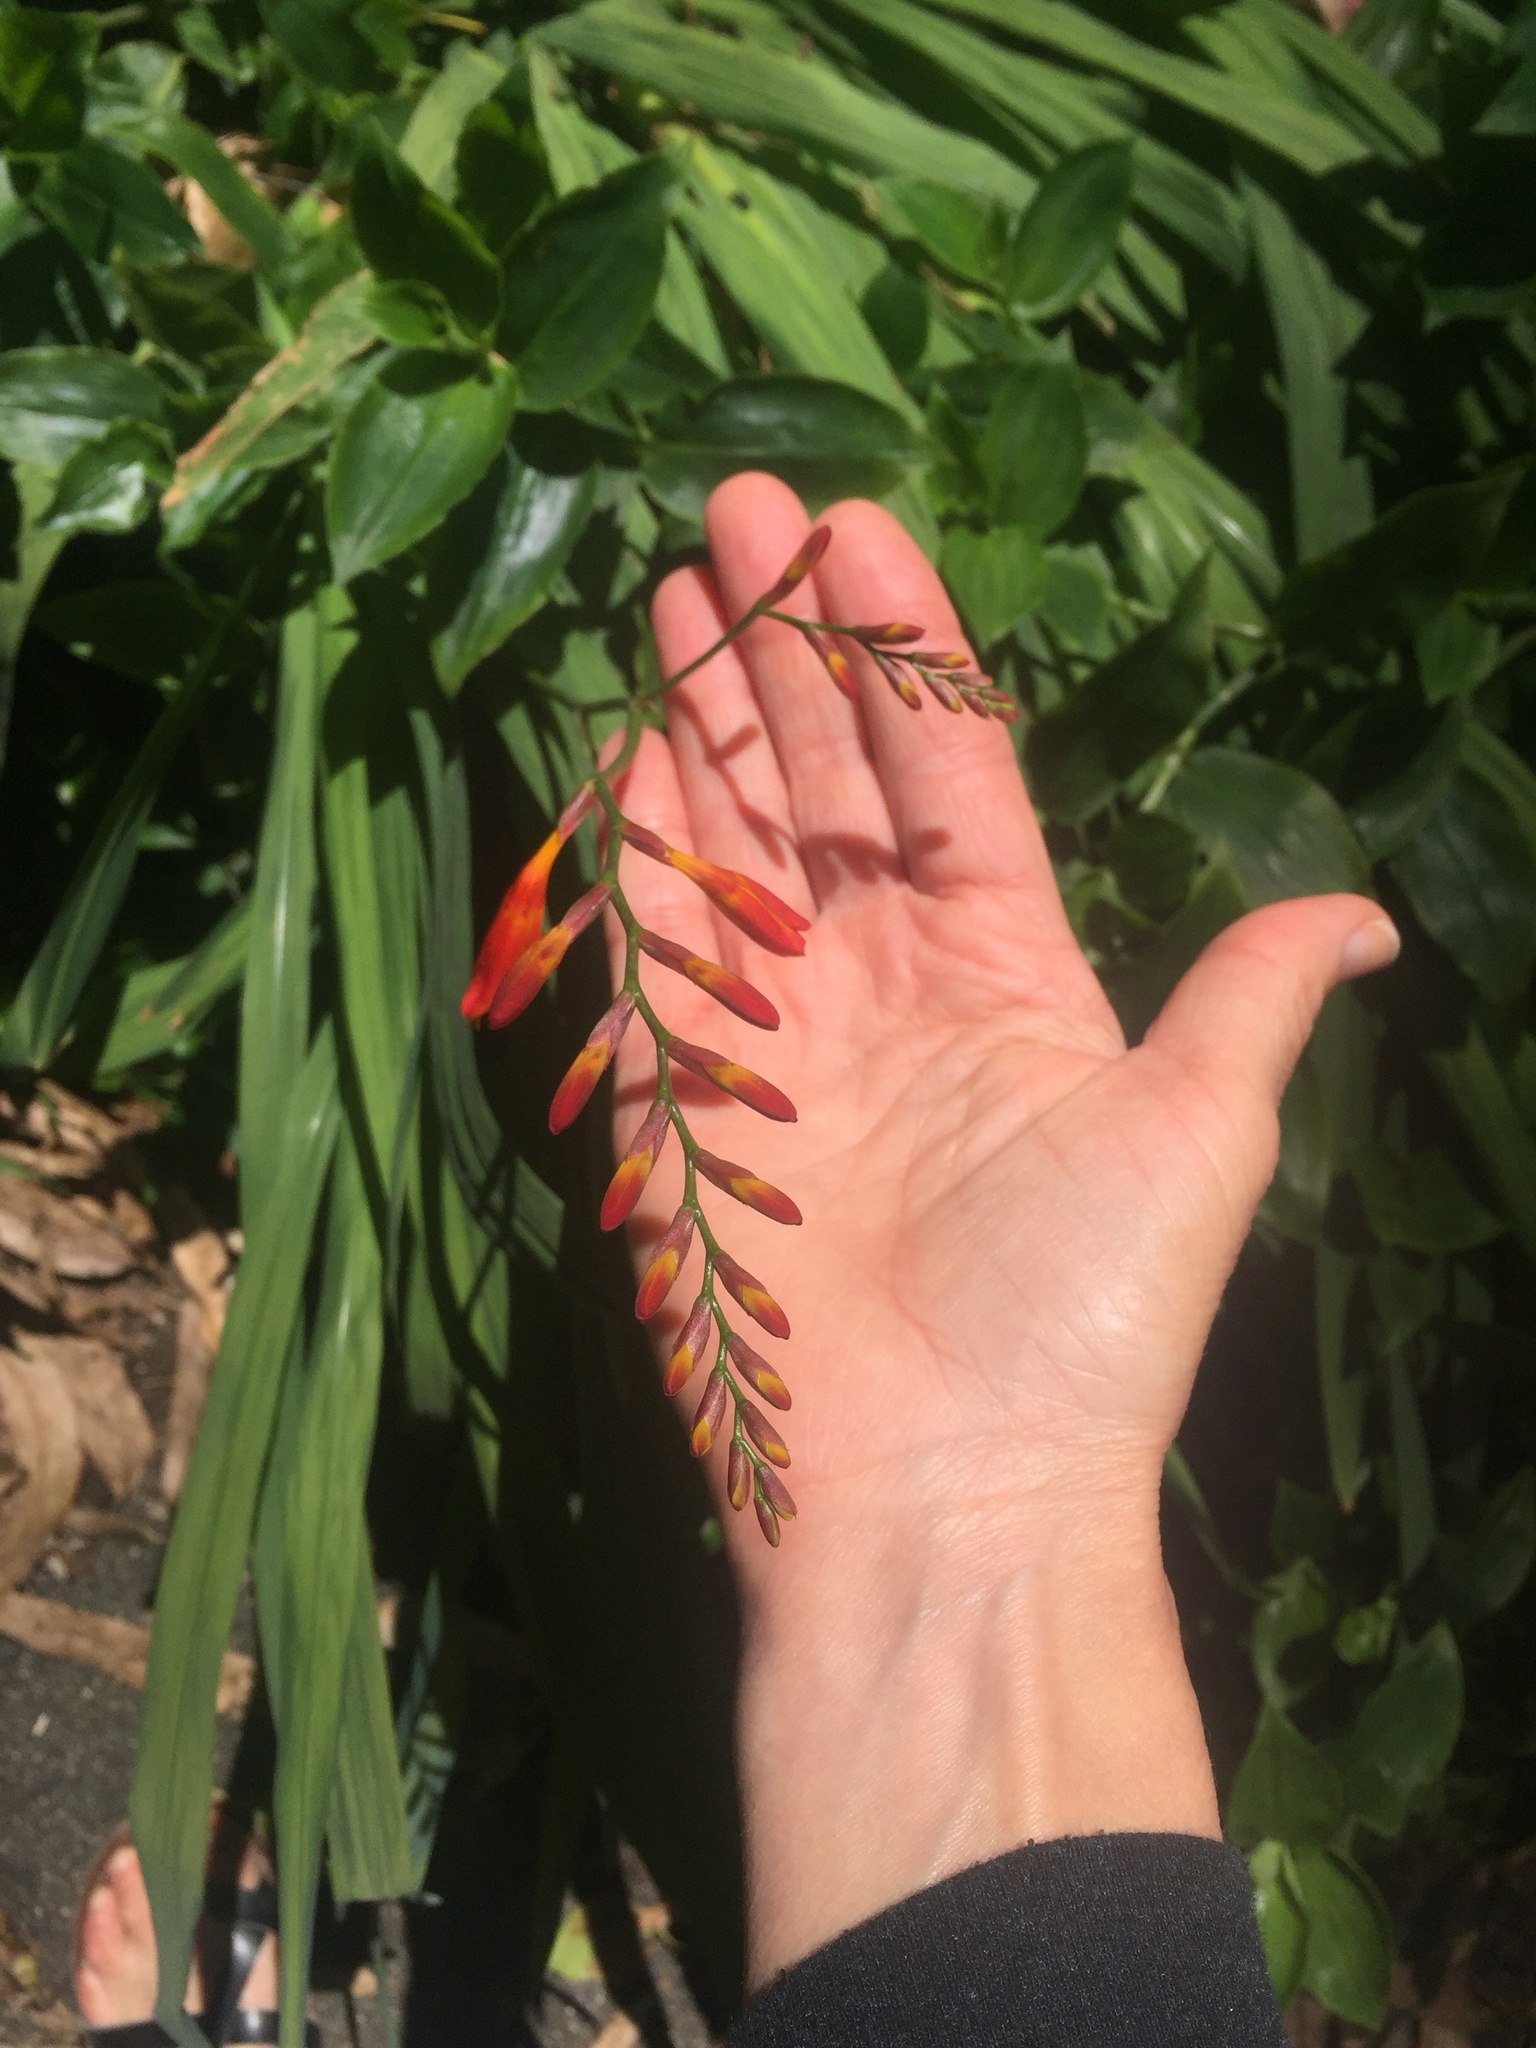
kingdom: Plantae
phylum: Tracheophyta
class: Liliopsida
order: Asparagales
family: Iridaceae
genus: Crocosmia
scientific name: Crocosmia crocosmiiflora
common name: Montbretia
